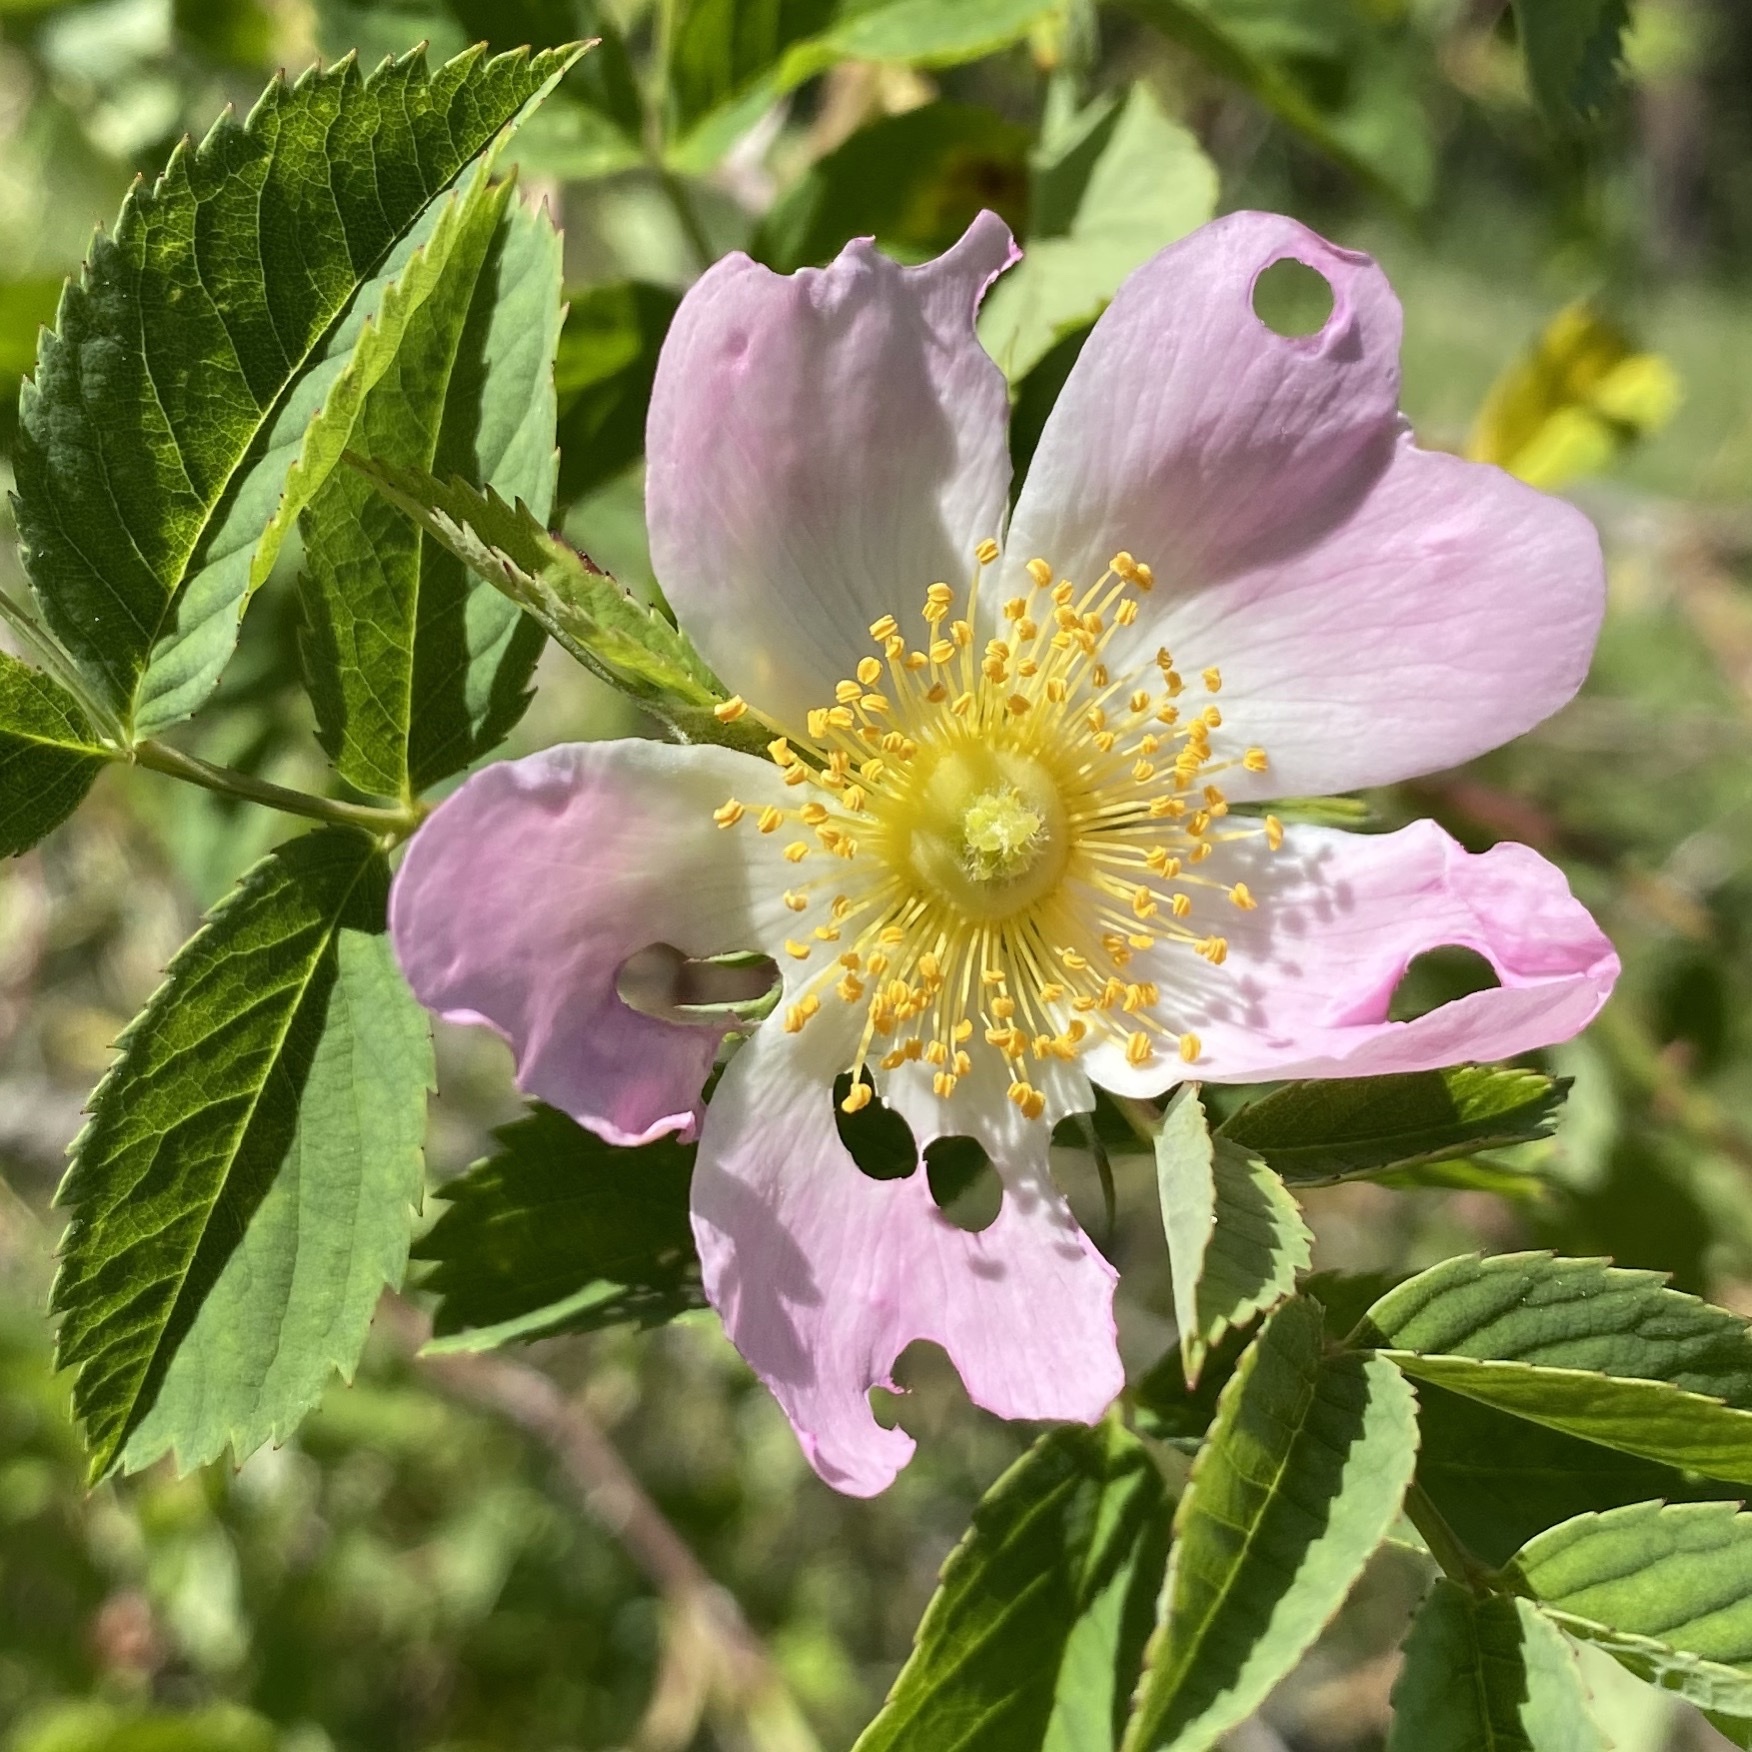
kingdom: Plantae
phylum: Tracheophyta
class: Magnoliopsida
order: Rosales
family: Rosaceae
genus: Rosa
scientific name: Rosa canina
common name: Dog rose
